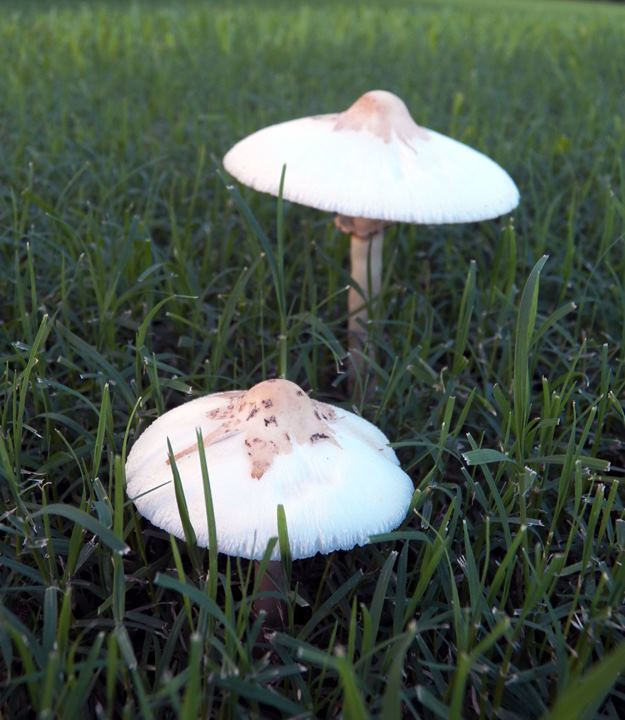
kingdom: Fungi
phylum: Basidiomycota
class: Agaricomycetes
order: Agaricales
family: Agaricaceae
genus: Chlorophyllum
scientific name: Chlorophyllum molybdites
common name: False parasol
